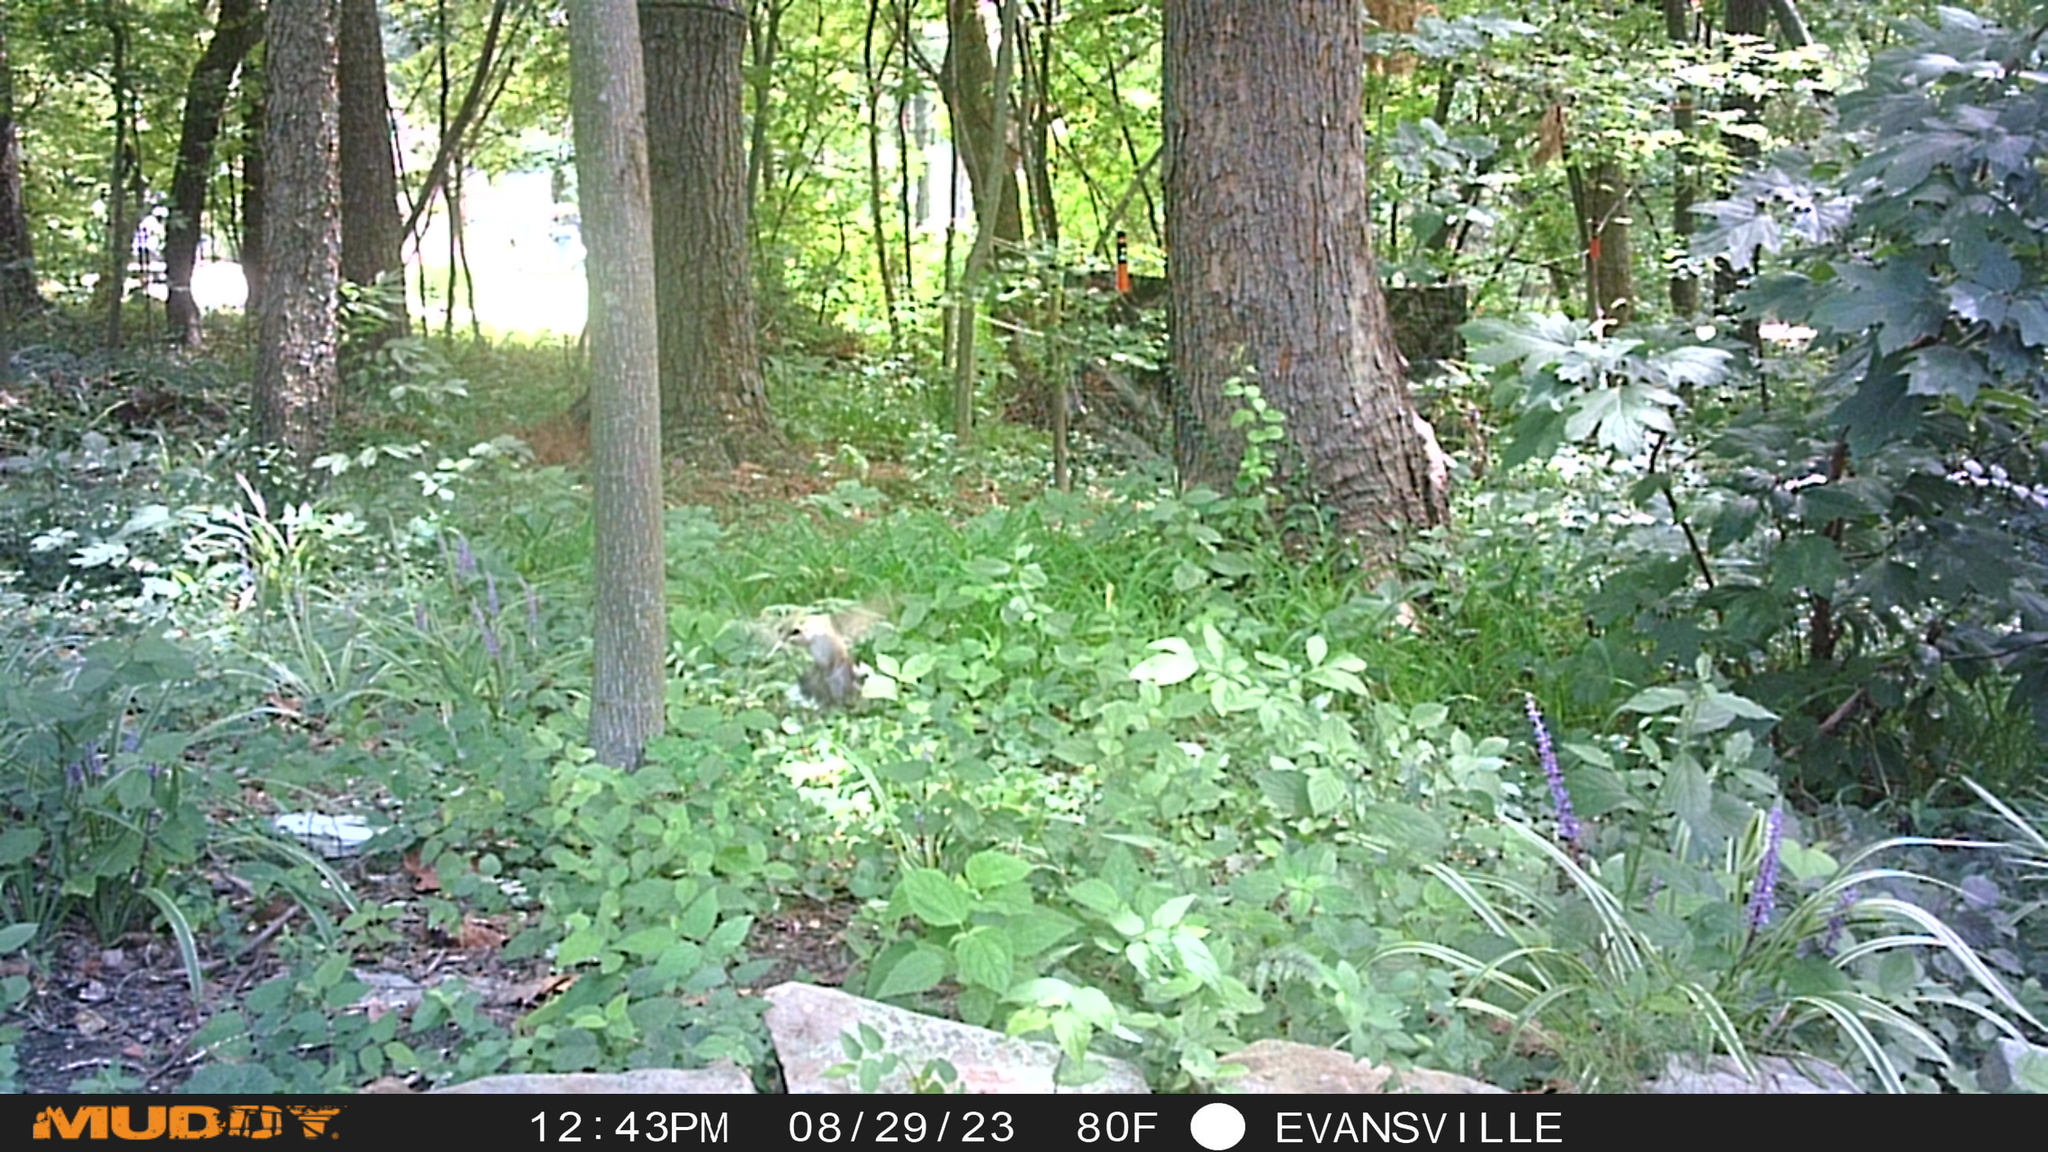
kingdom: Animalia
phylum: Chordata
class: Aves
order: Apodiformes
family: Trochilidae
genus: Archilochus
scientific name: Archilochus colubris
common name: Ruby-throated hummingbird
